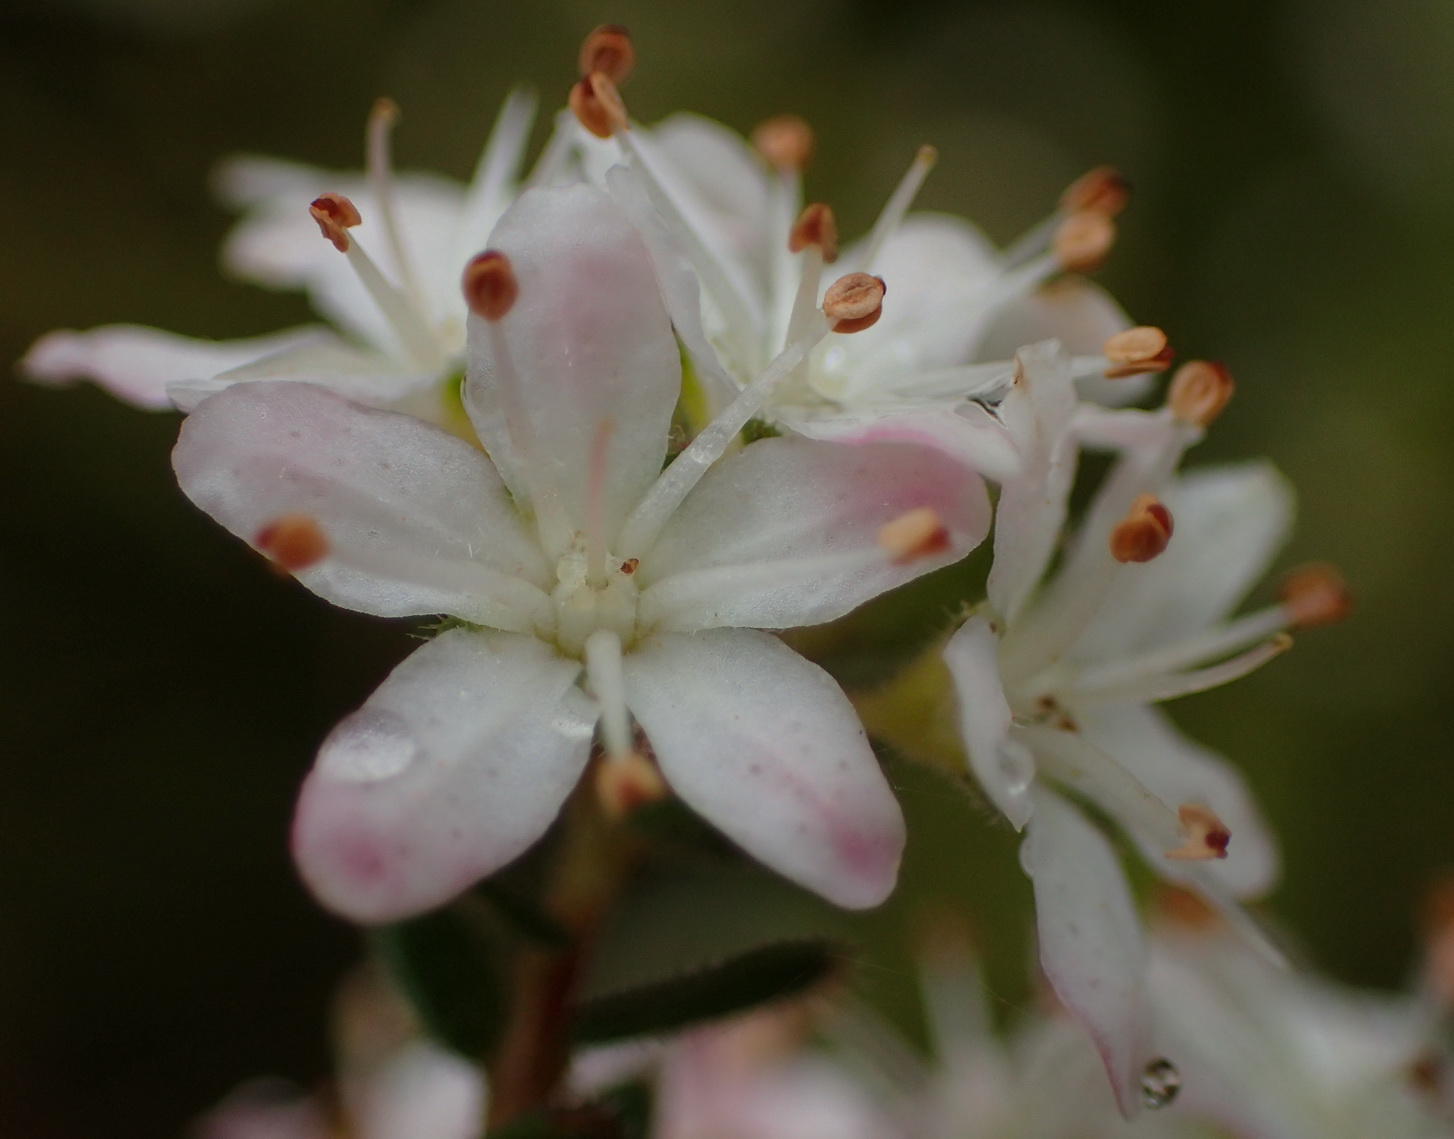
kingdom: Plantae
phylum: Tracheophyta
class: Magnoliopsida
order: Sapindales
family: Rutaceae
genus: Agathosma
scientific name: Agathosma planifolia
